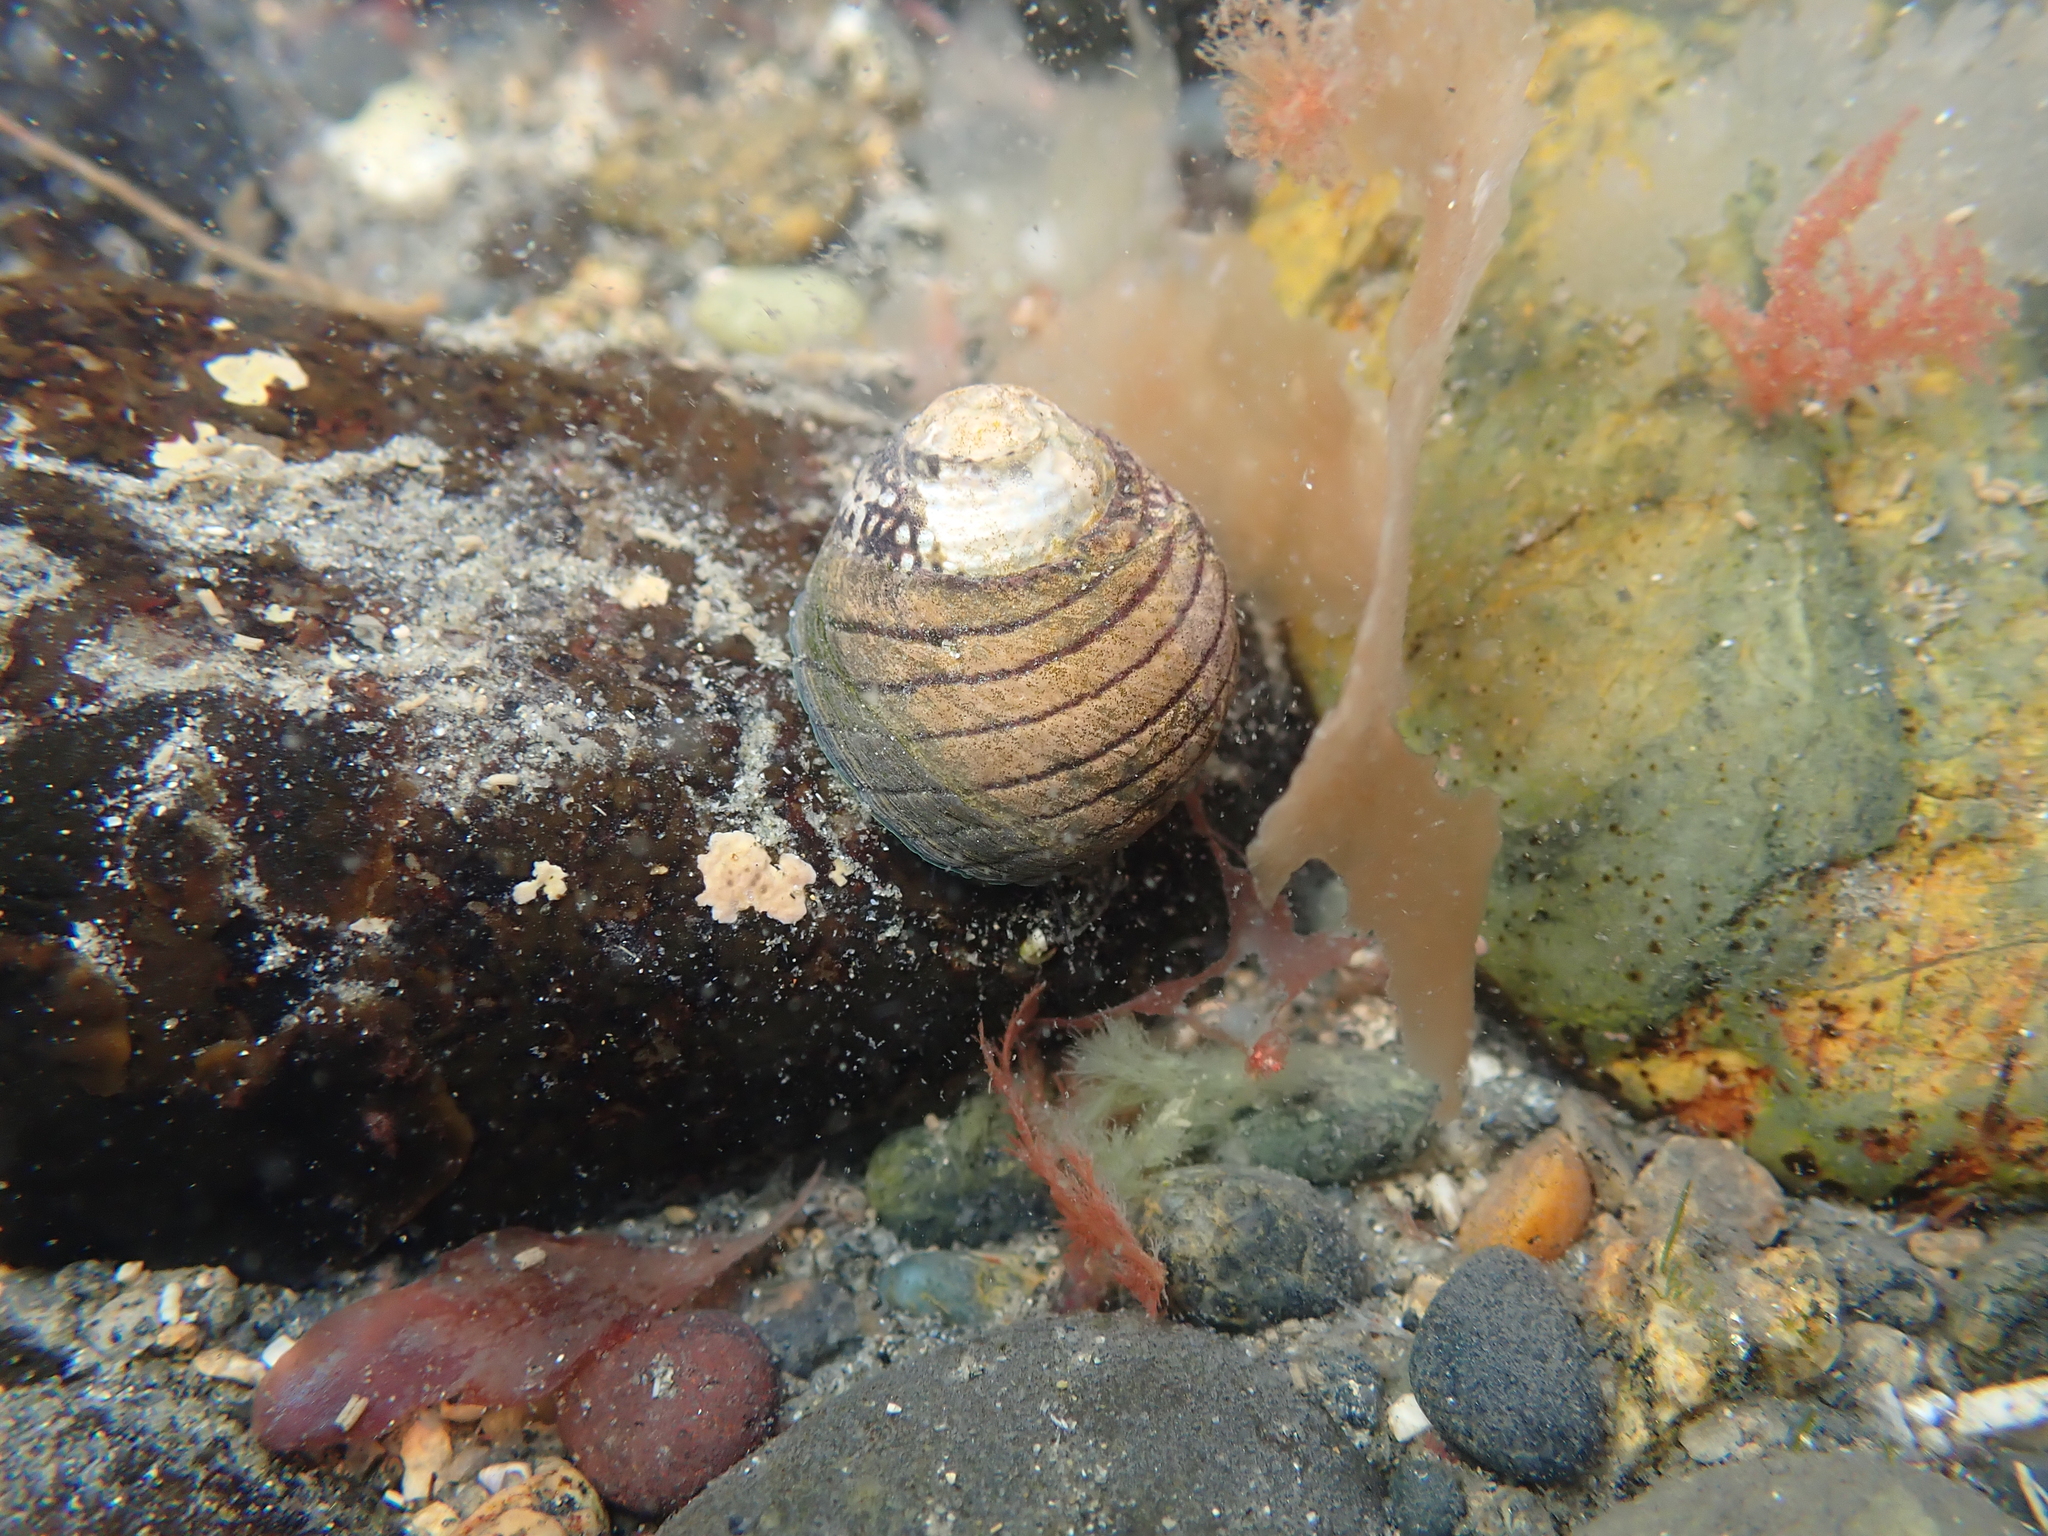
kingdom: Animalia
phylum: Mollusca
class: Gastropoda
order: Trochida
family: Trochidae
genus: Diloma
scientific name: Diloma aethiops
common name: Scorched monodont
